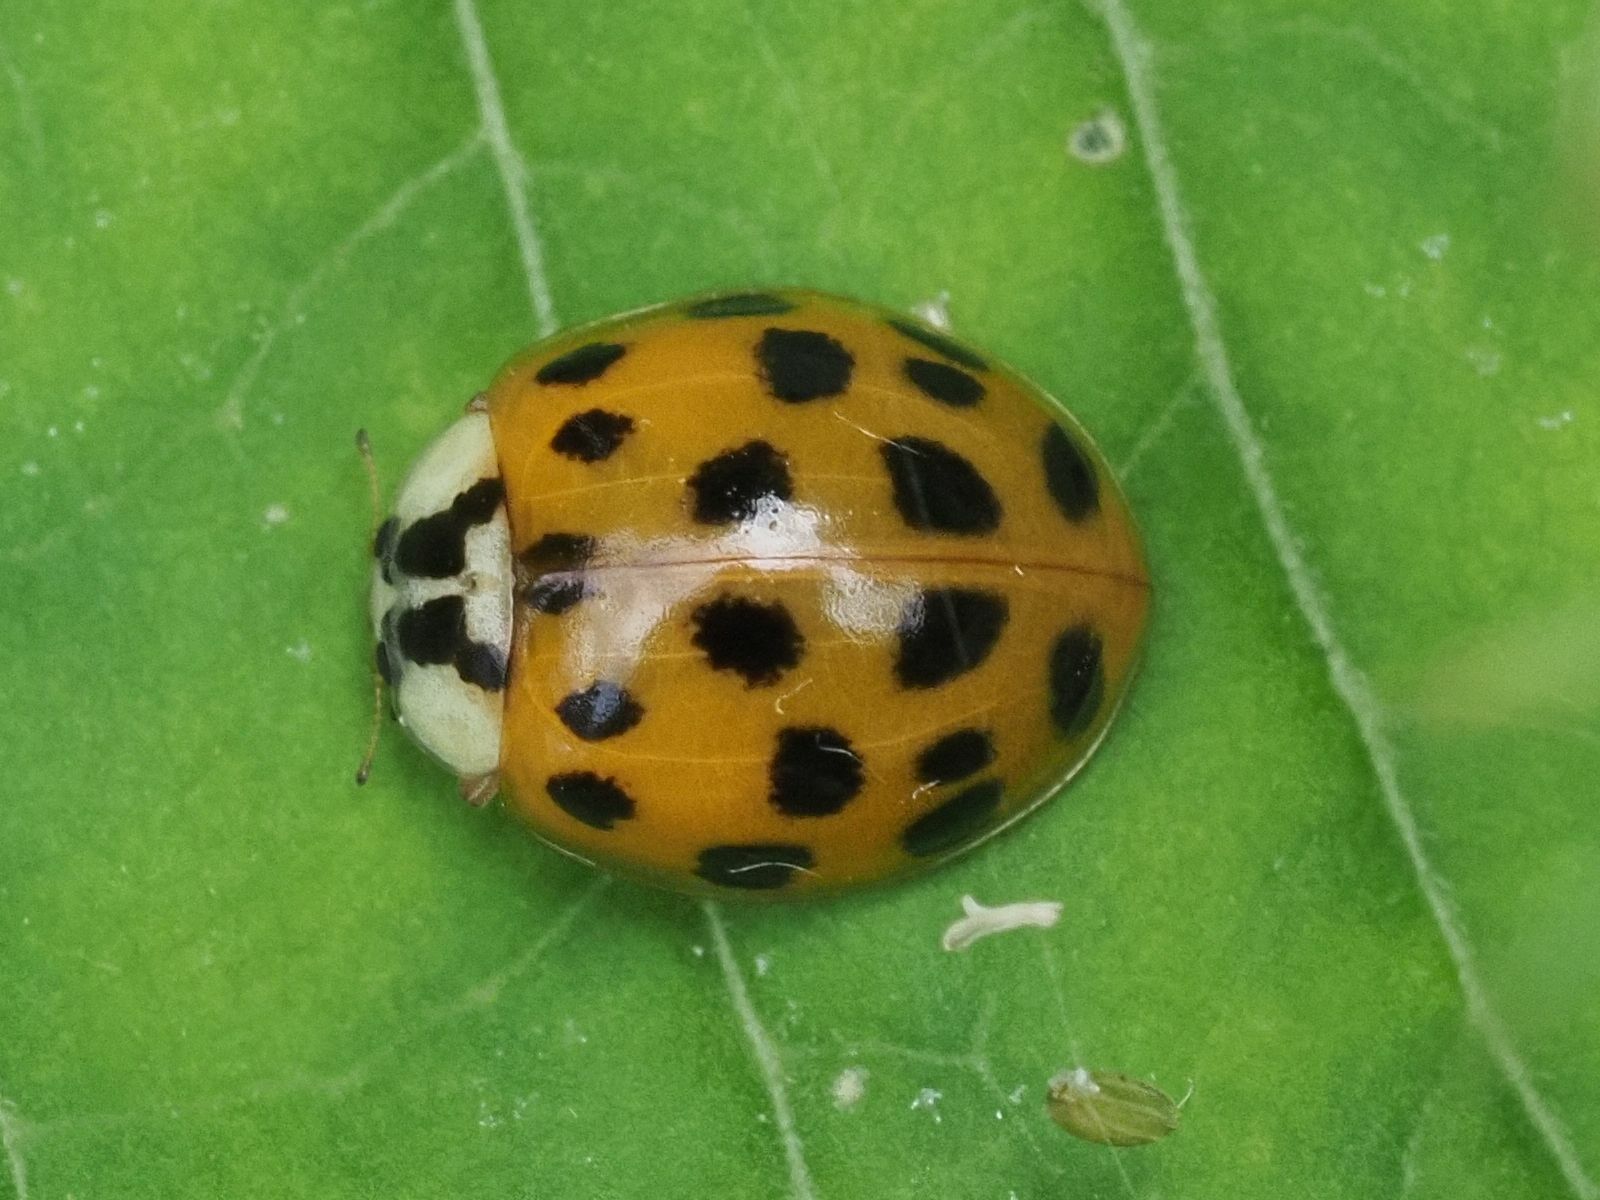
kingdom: Animalia
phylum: Arthropoda
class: Insecta
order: Coleoptera
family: Coccinellidae
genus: Harmonia
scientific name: Harmonia axyridis
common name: Harlequin ladybird
